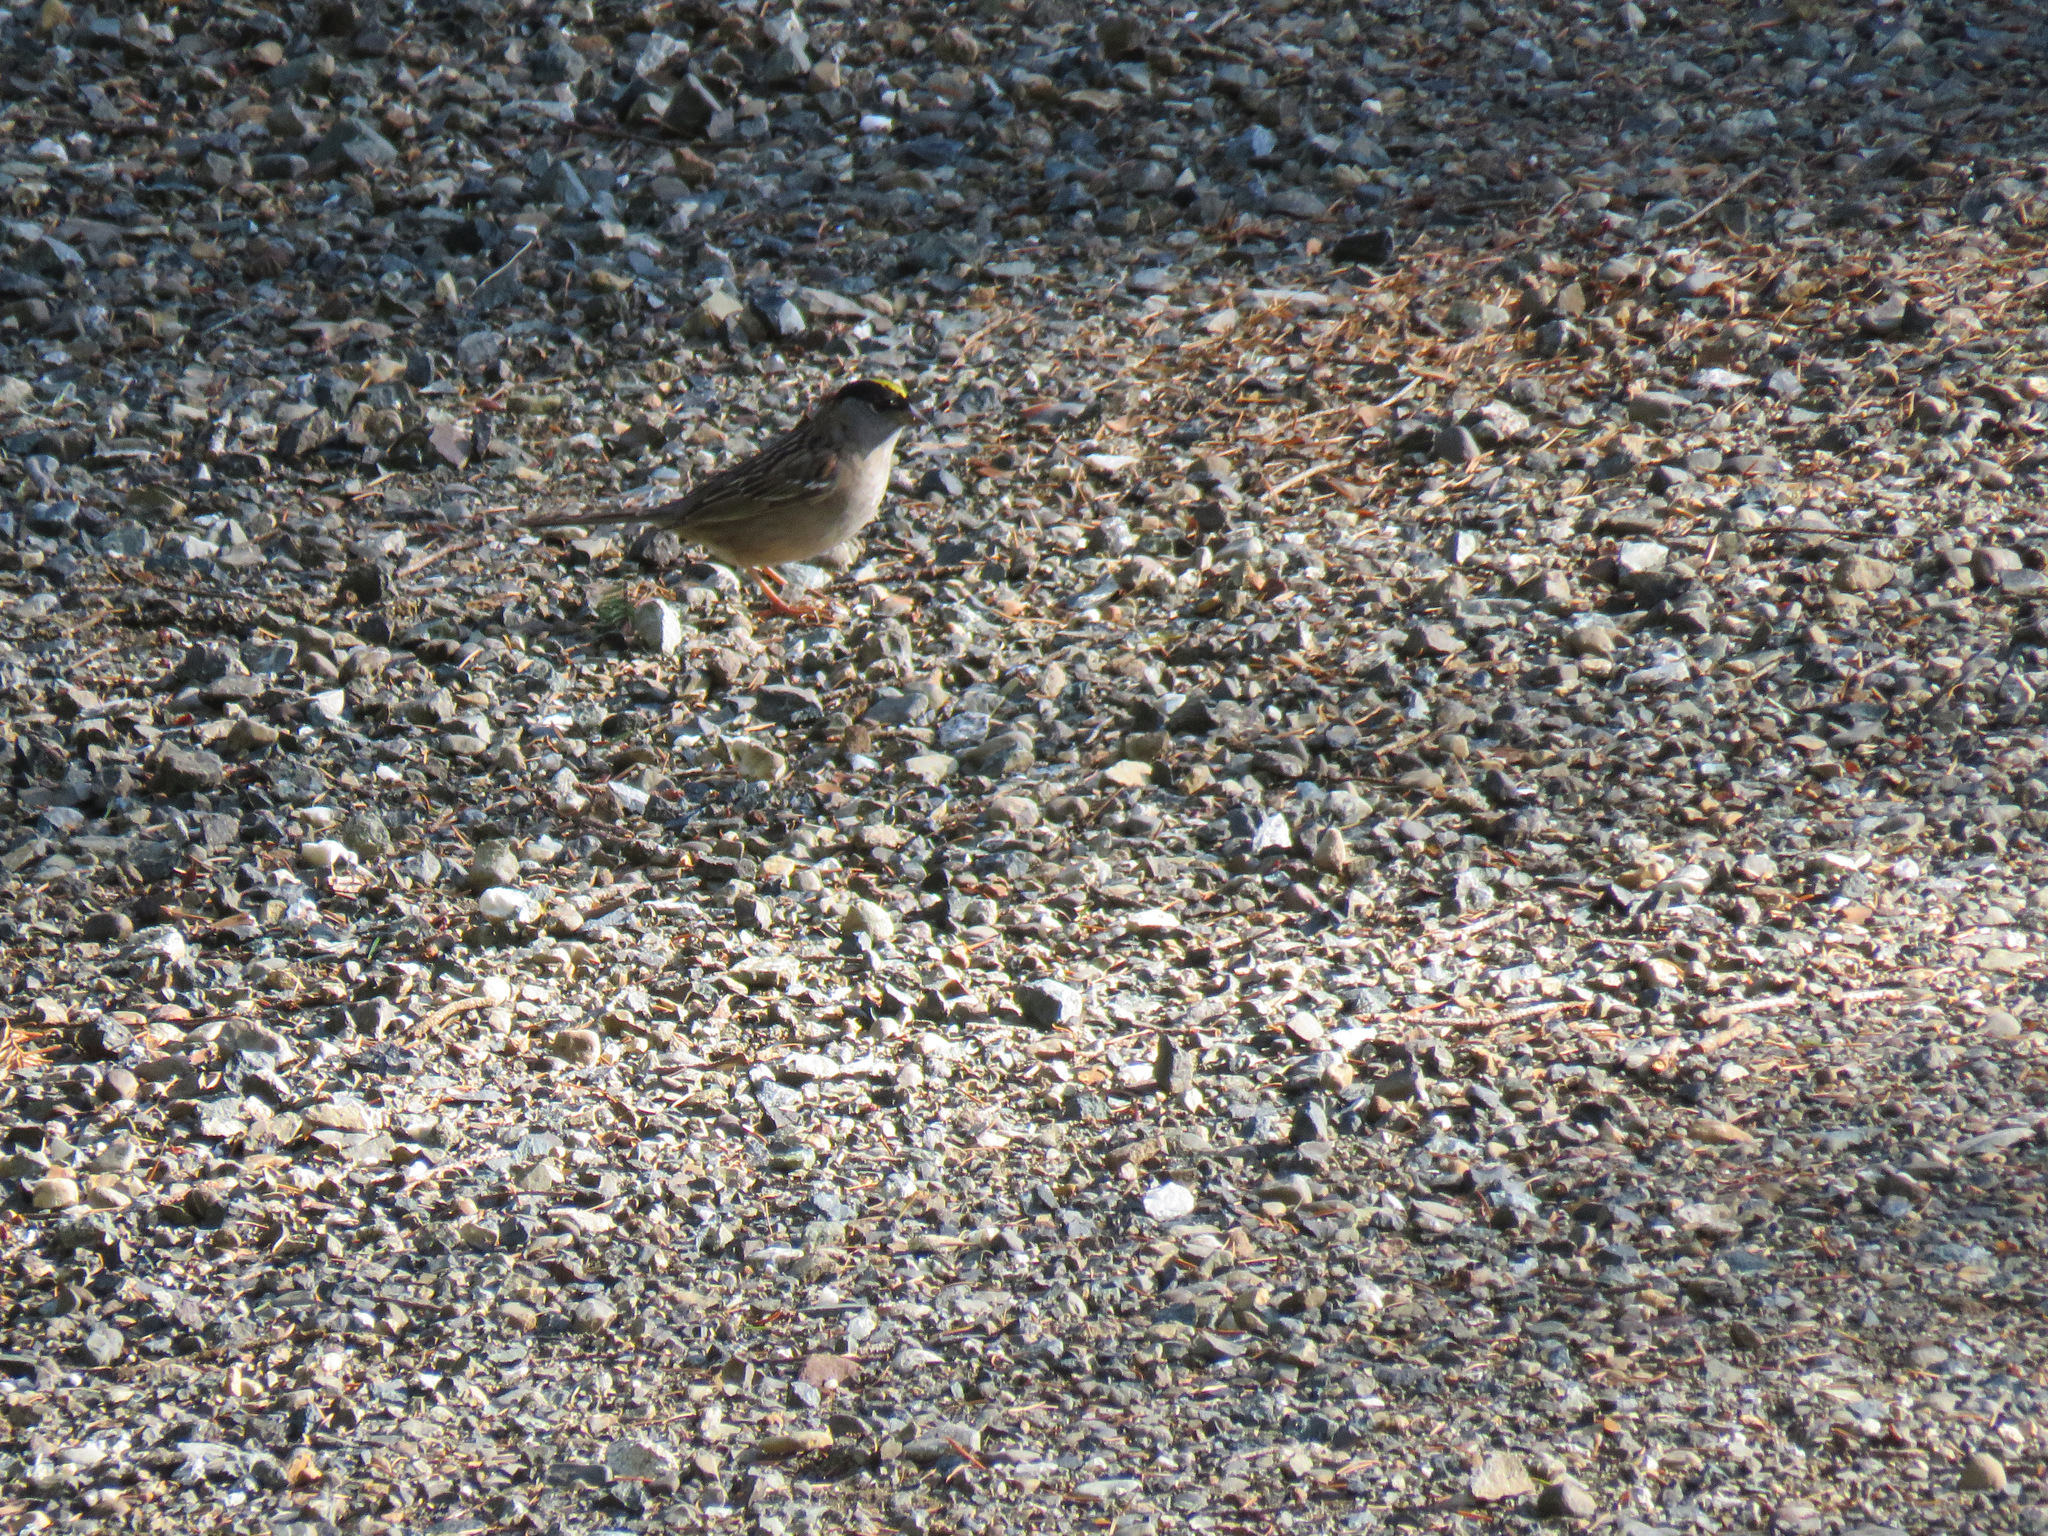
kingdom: Animalia
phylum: Chordata
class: Aves
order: Passeriformes
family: Passerellidae
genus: Zonotrichia
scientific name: Zonotrichia atricapilla
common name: Golden-crowned sparrow
